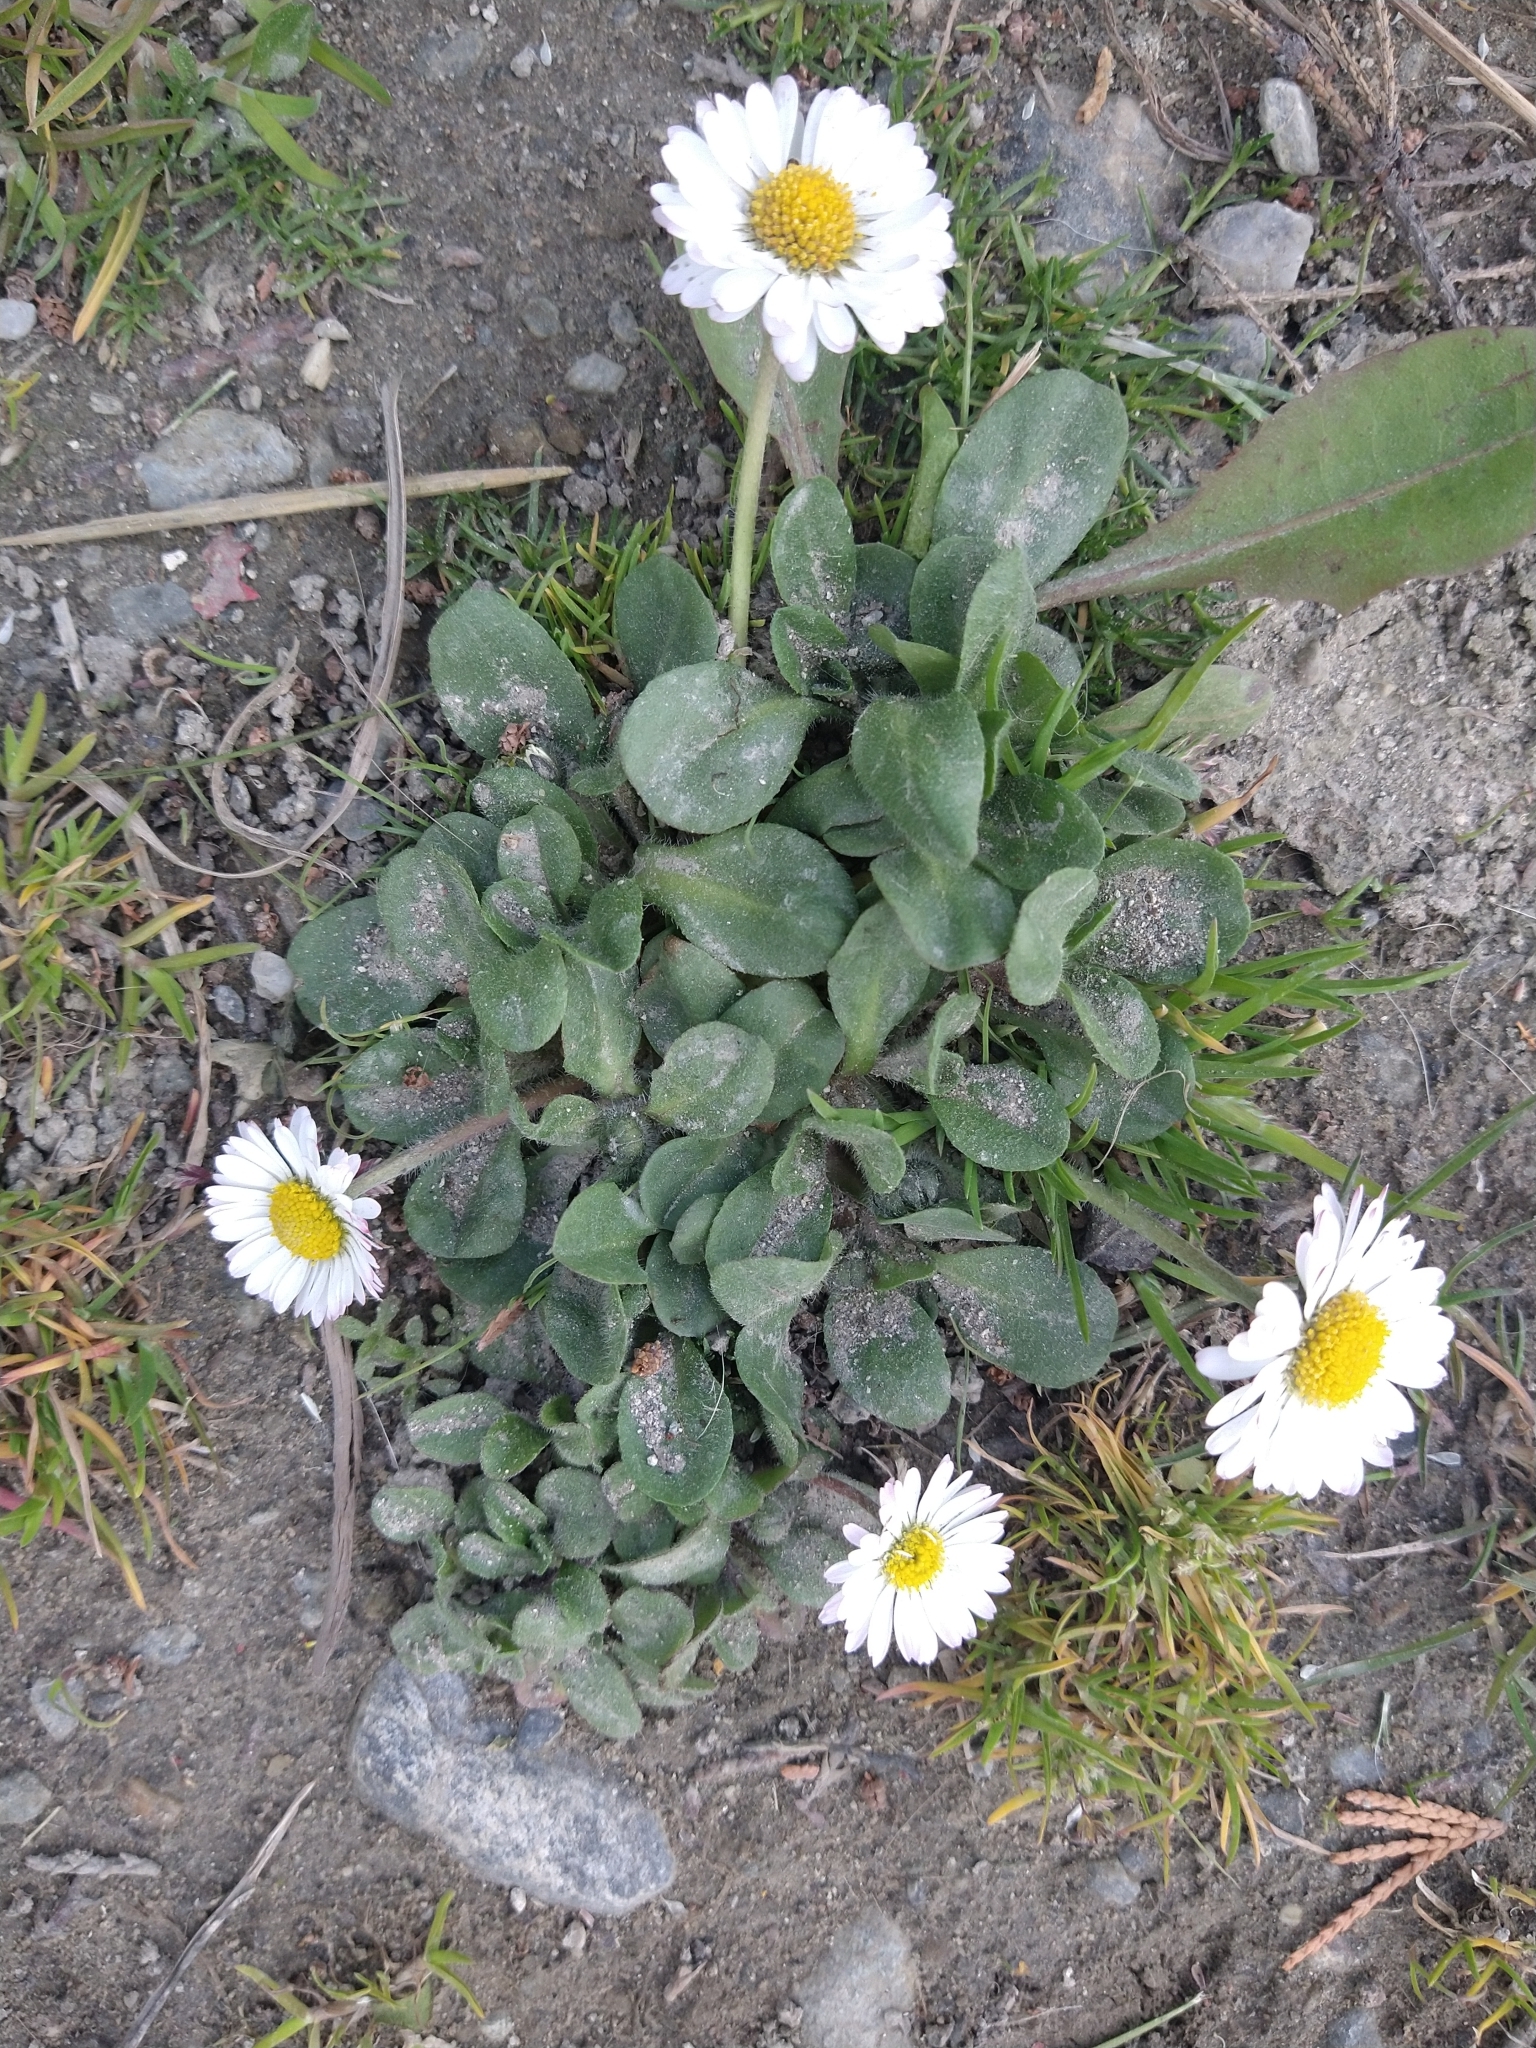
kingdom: Plantae
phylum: Tracheophyta
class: Magnoliopsida
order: Asterales
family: Asteraceae
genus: Bellis
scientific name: Bellis perennis
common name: Lawndaisy
